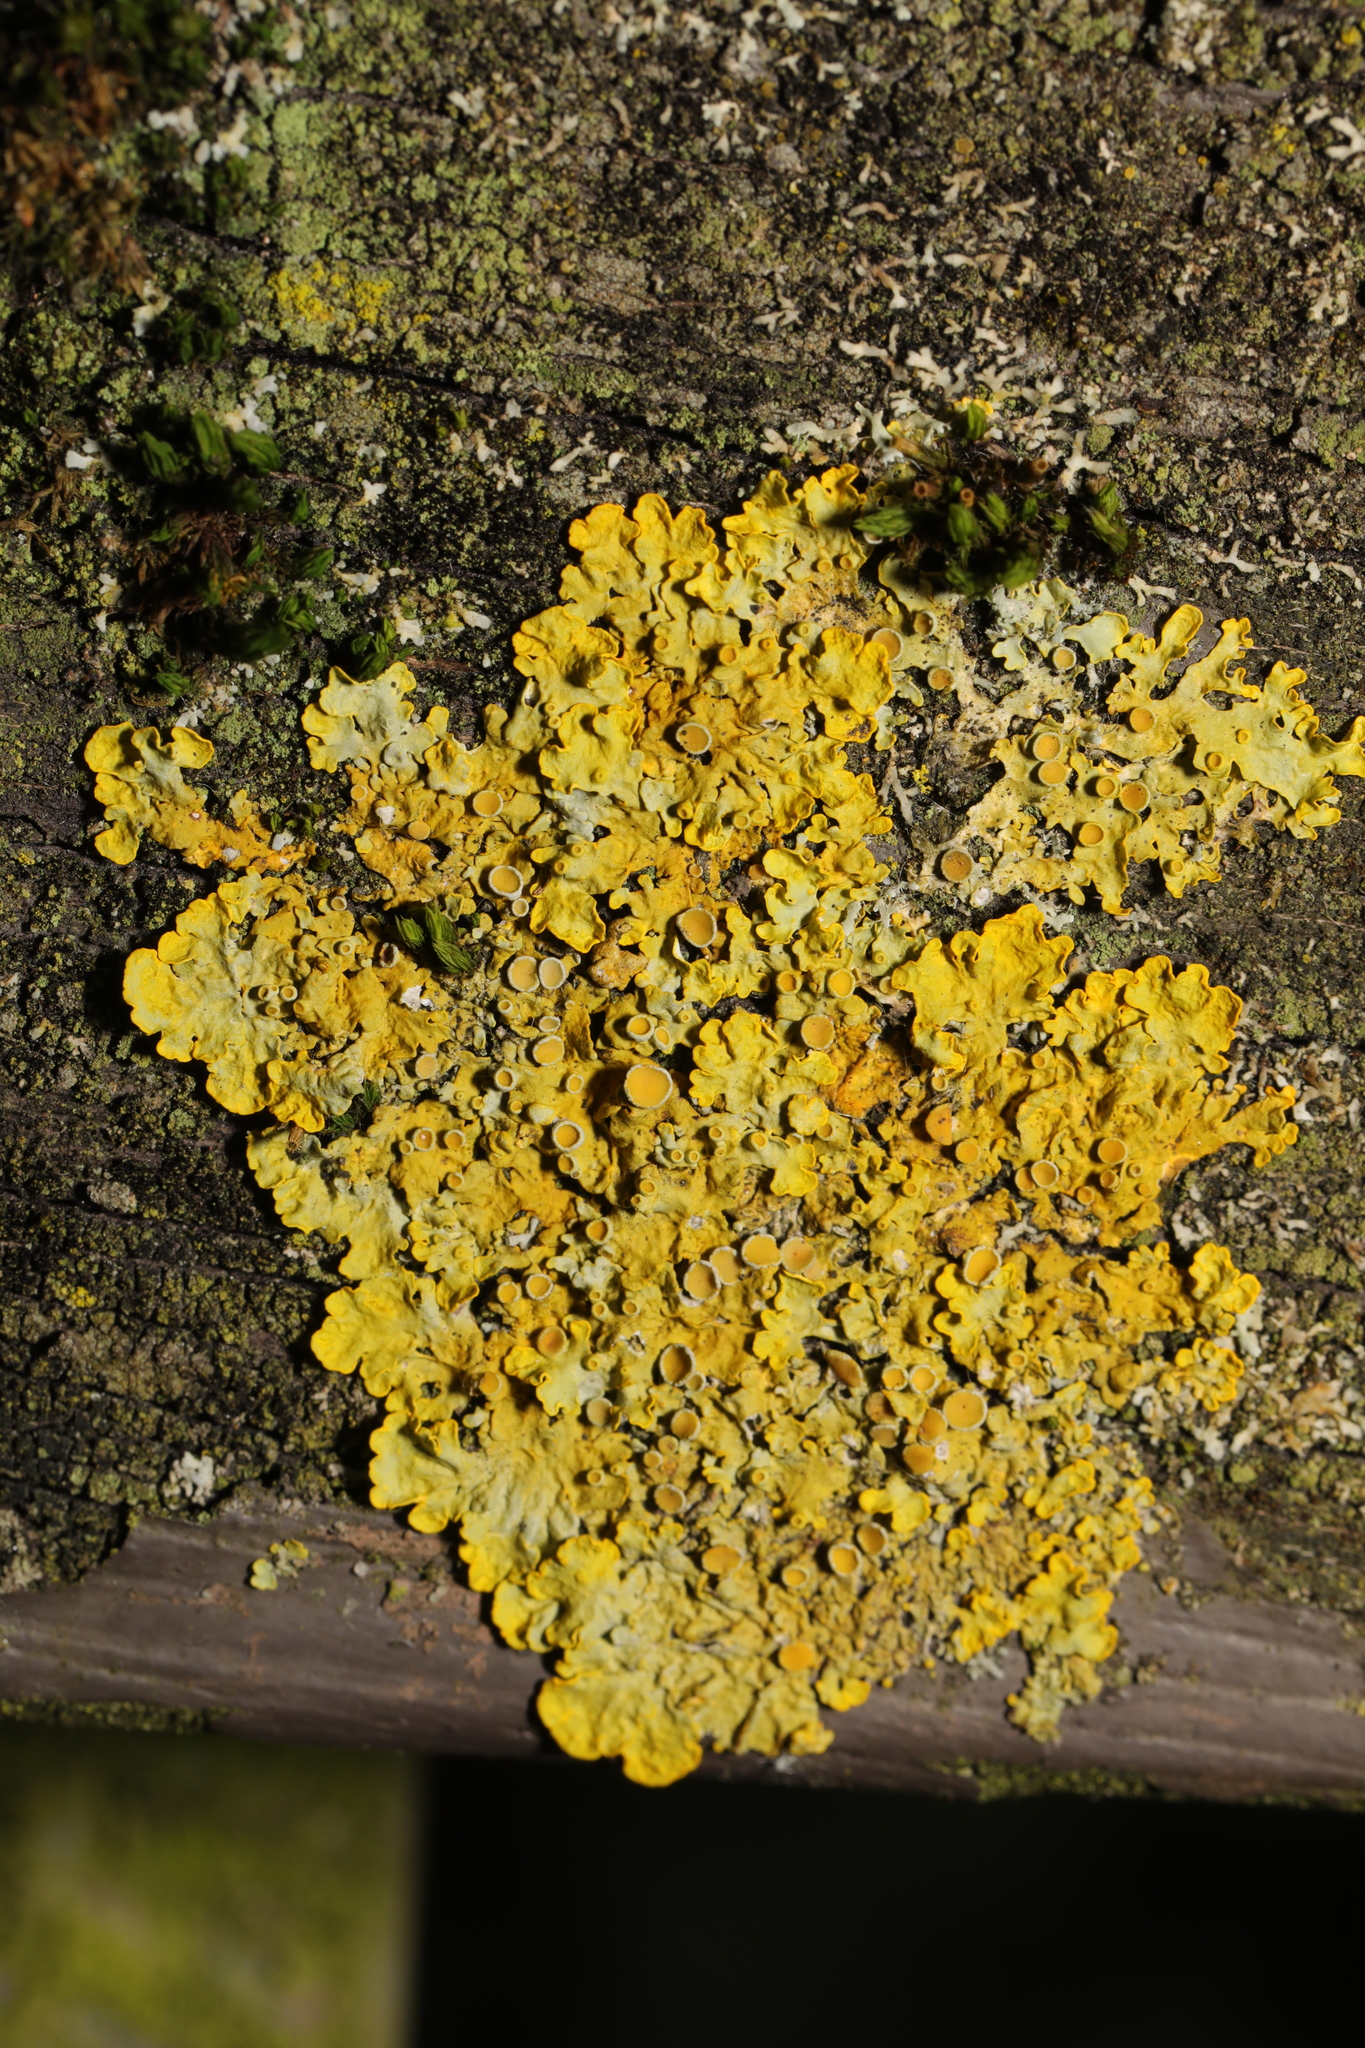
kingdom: Fungi
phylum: Ascomycota
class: Lecanoromycetes
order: Teloschistales
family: Teloschistaceae
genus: Xanthoria
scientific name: Xanthoria parietina
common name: Common orange lichen
